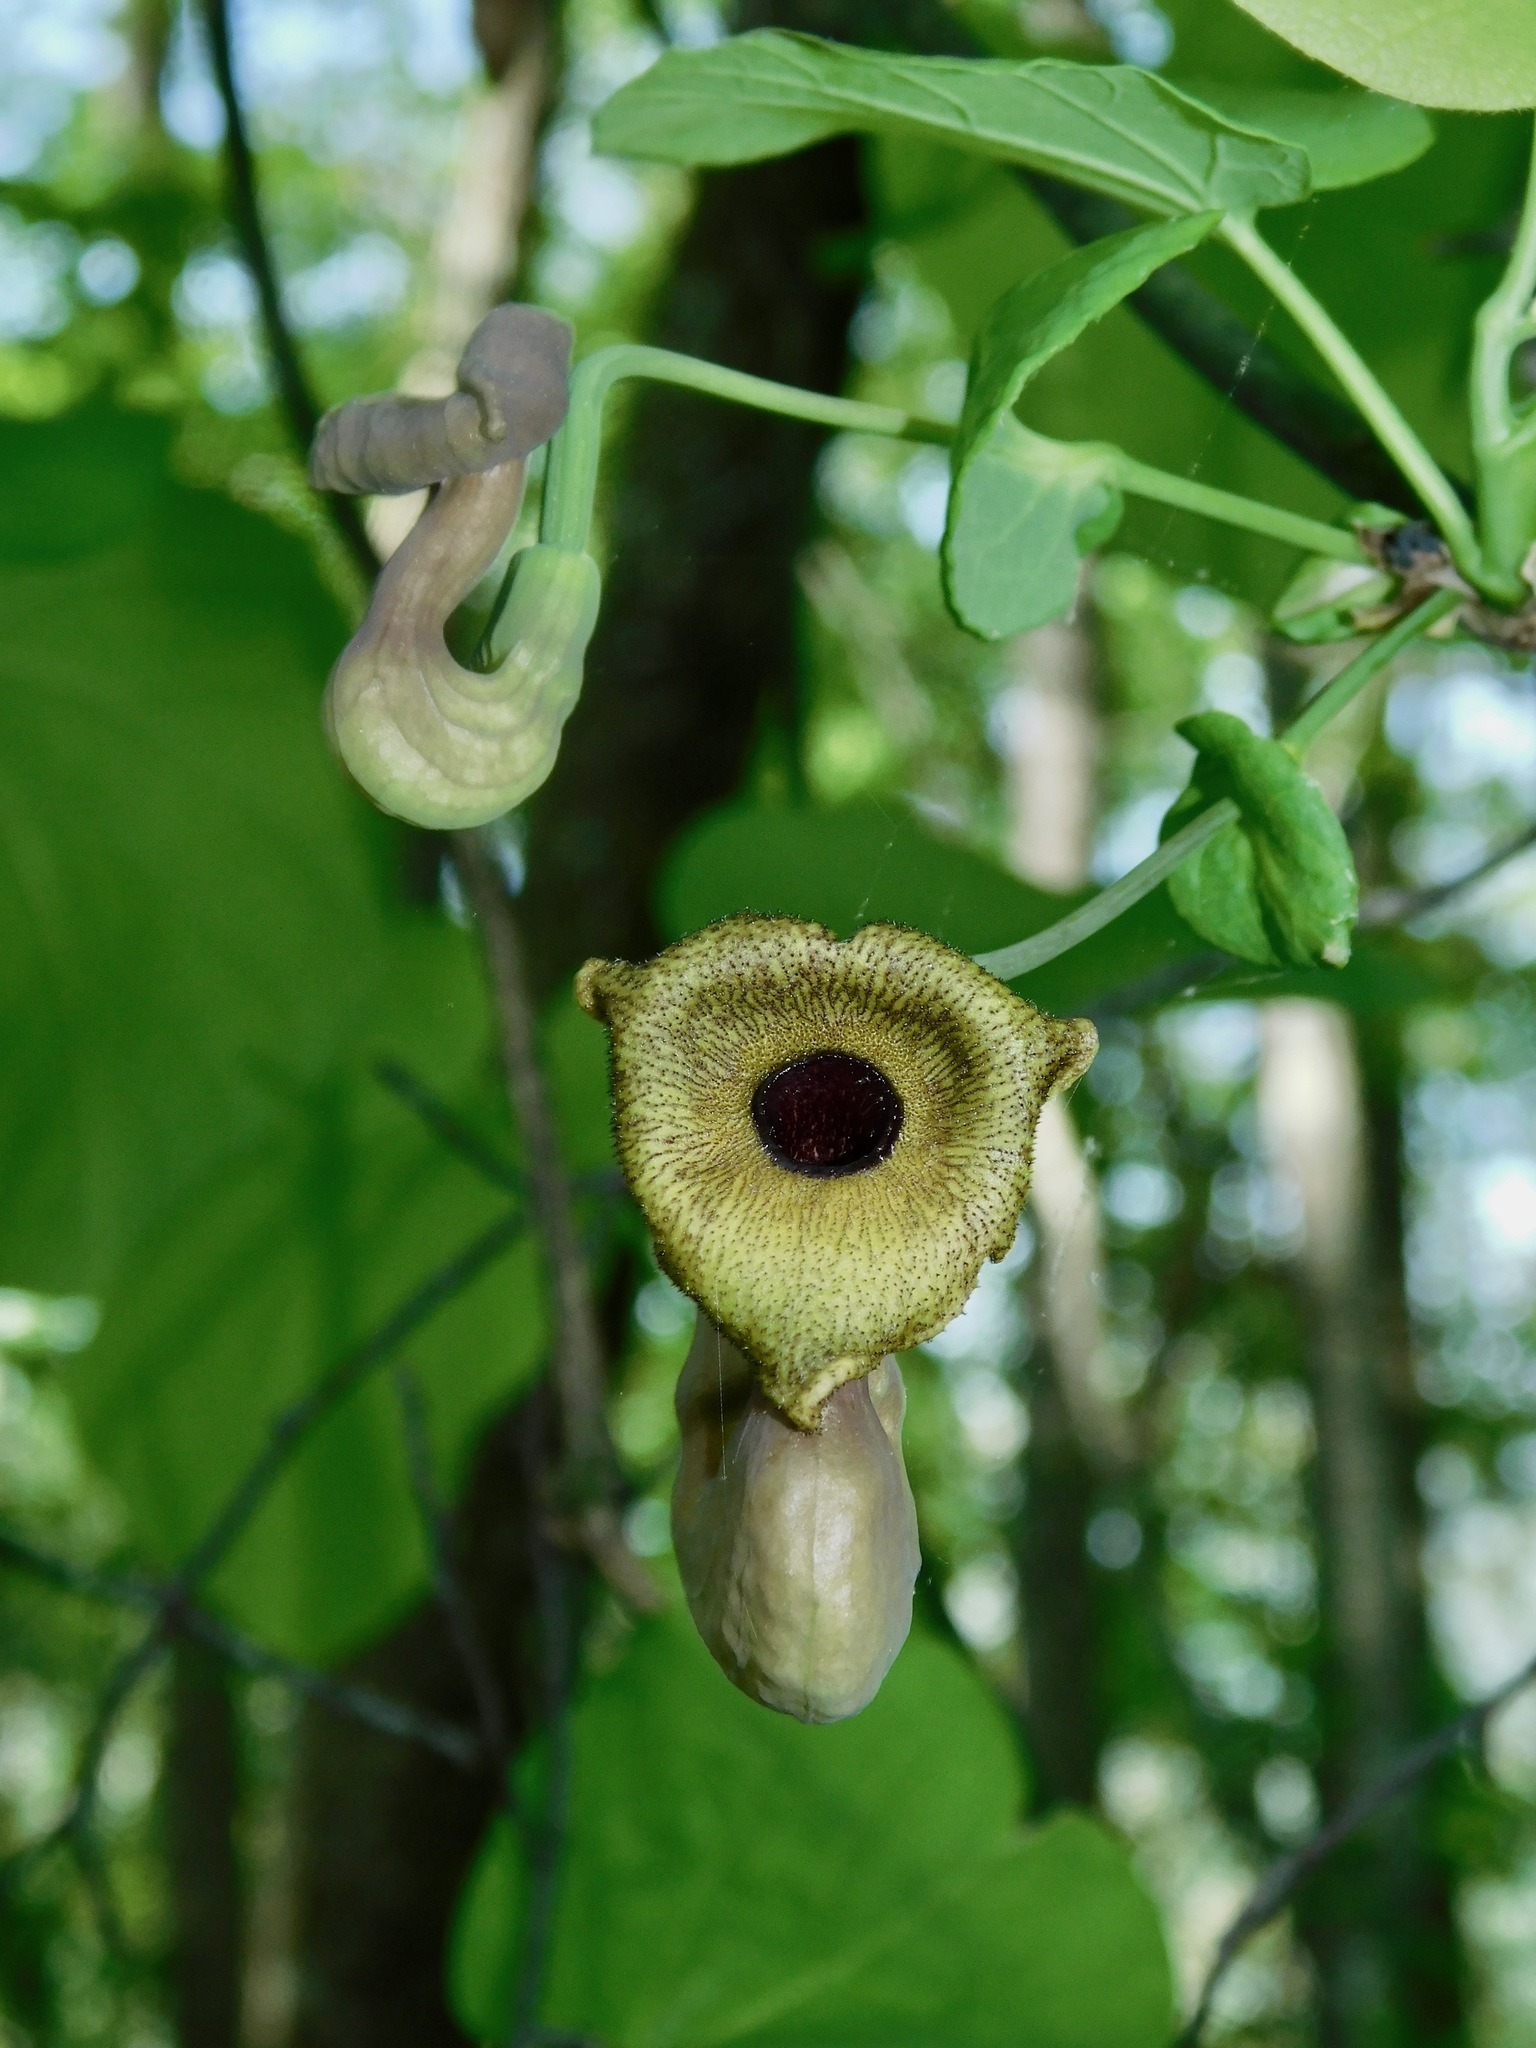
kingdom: Plantae
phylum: Tracheophyta
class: Magnoliopsida
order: Piperales
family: Aristolochiaceae
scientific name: Aristolochiaceae
